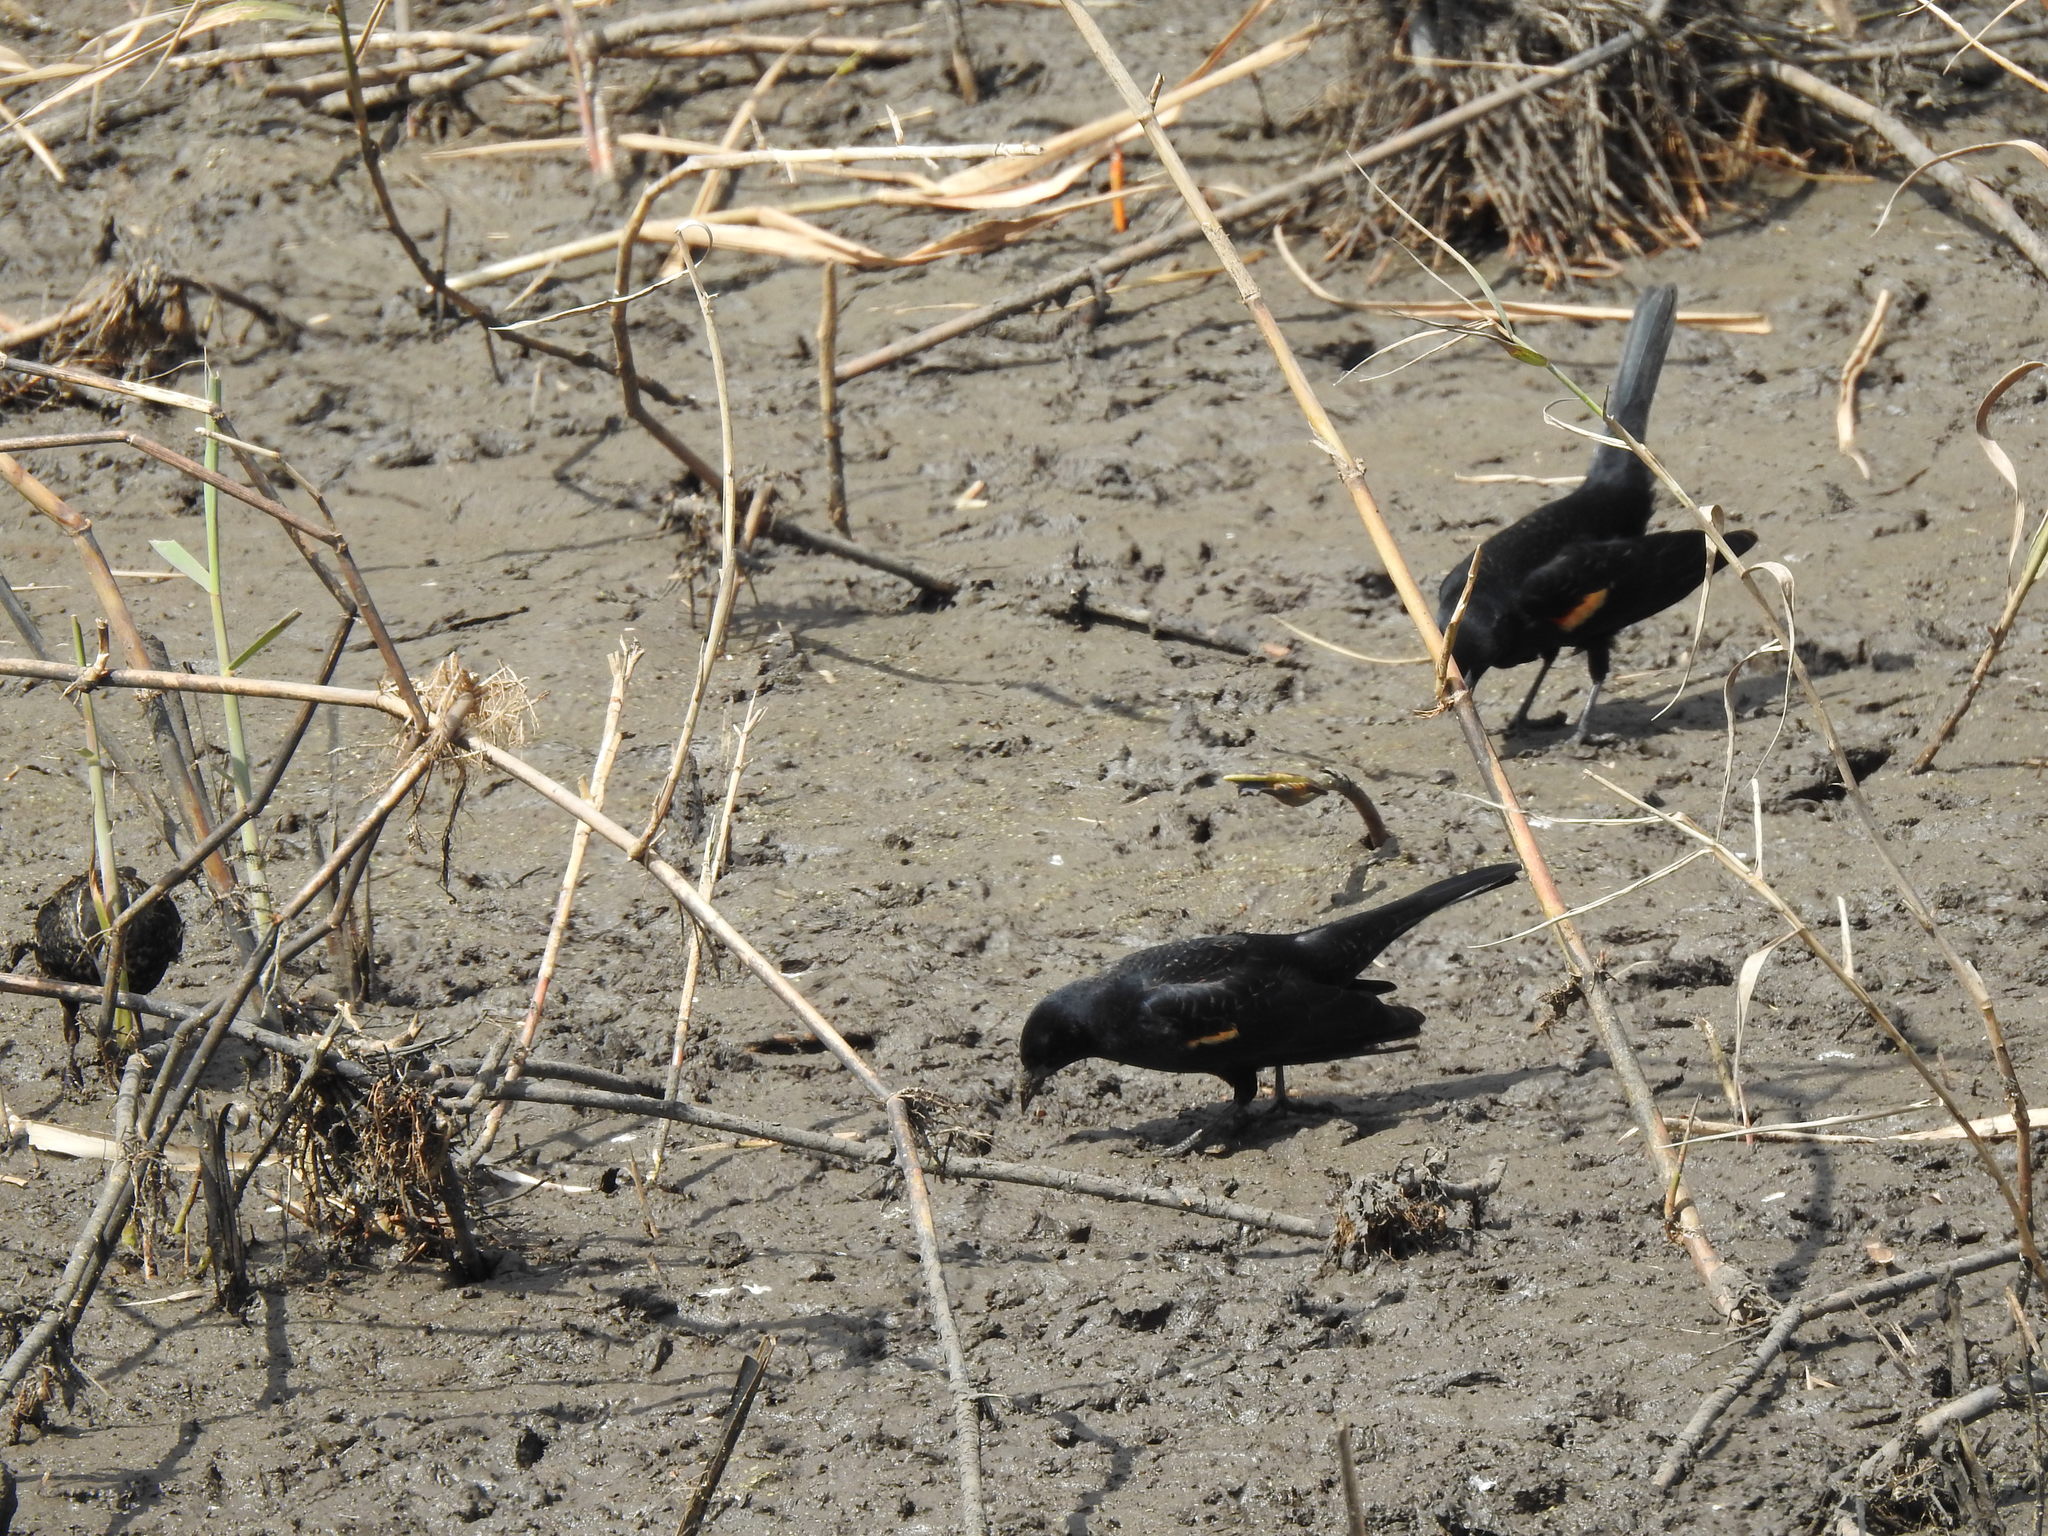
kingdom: Animalia
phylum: Chordata
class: Aves
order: Passeriformes
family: Icteridae
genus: Agelaius
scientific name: Agelaius phoeniceus
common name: Red-winged blackbird
